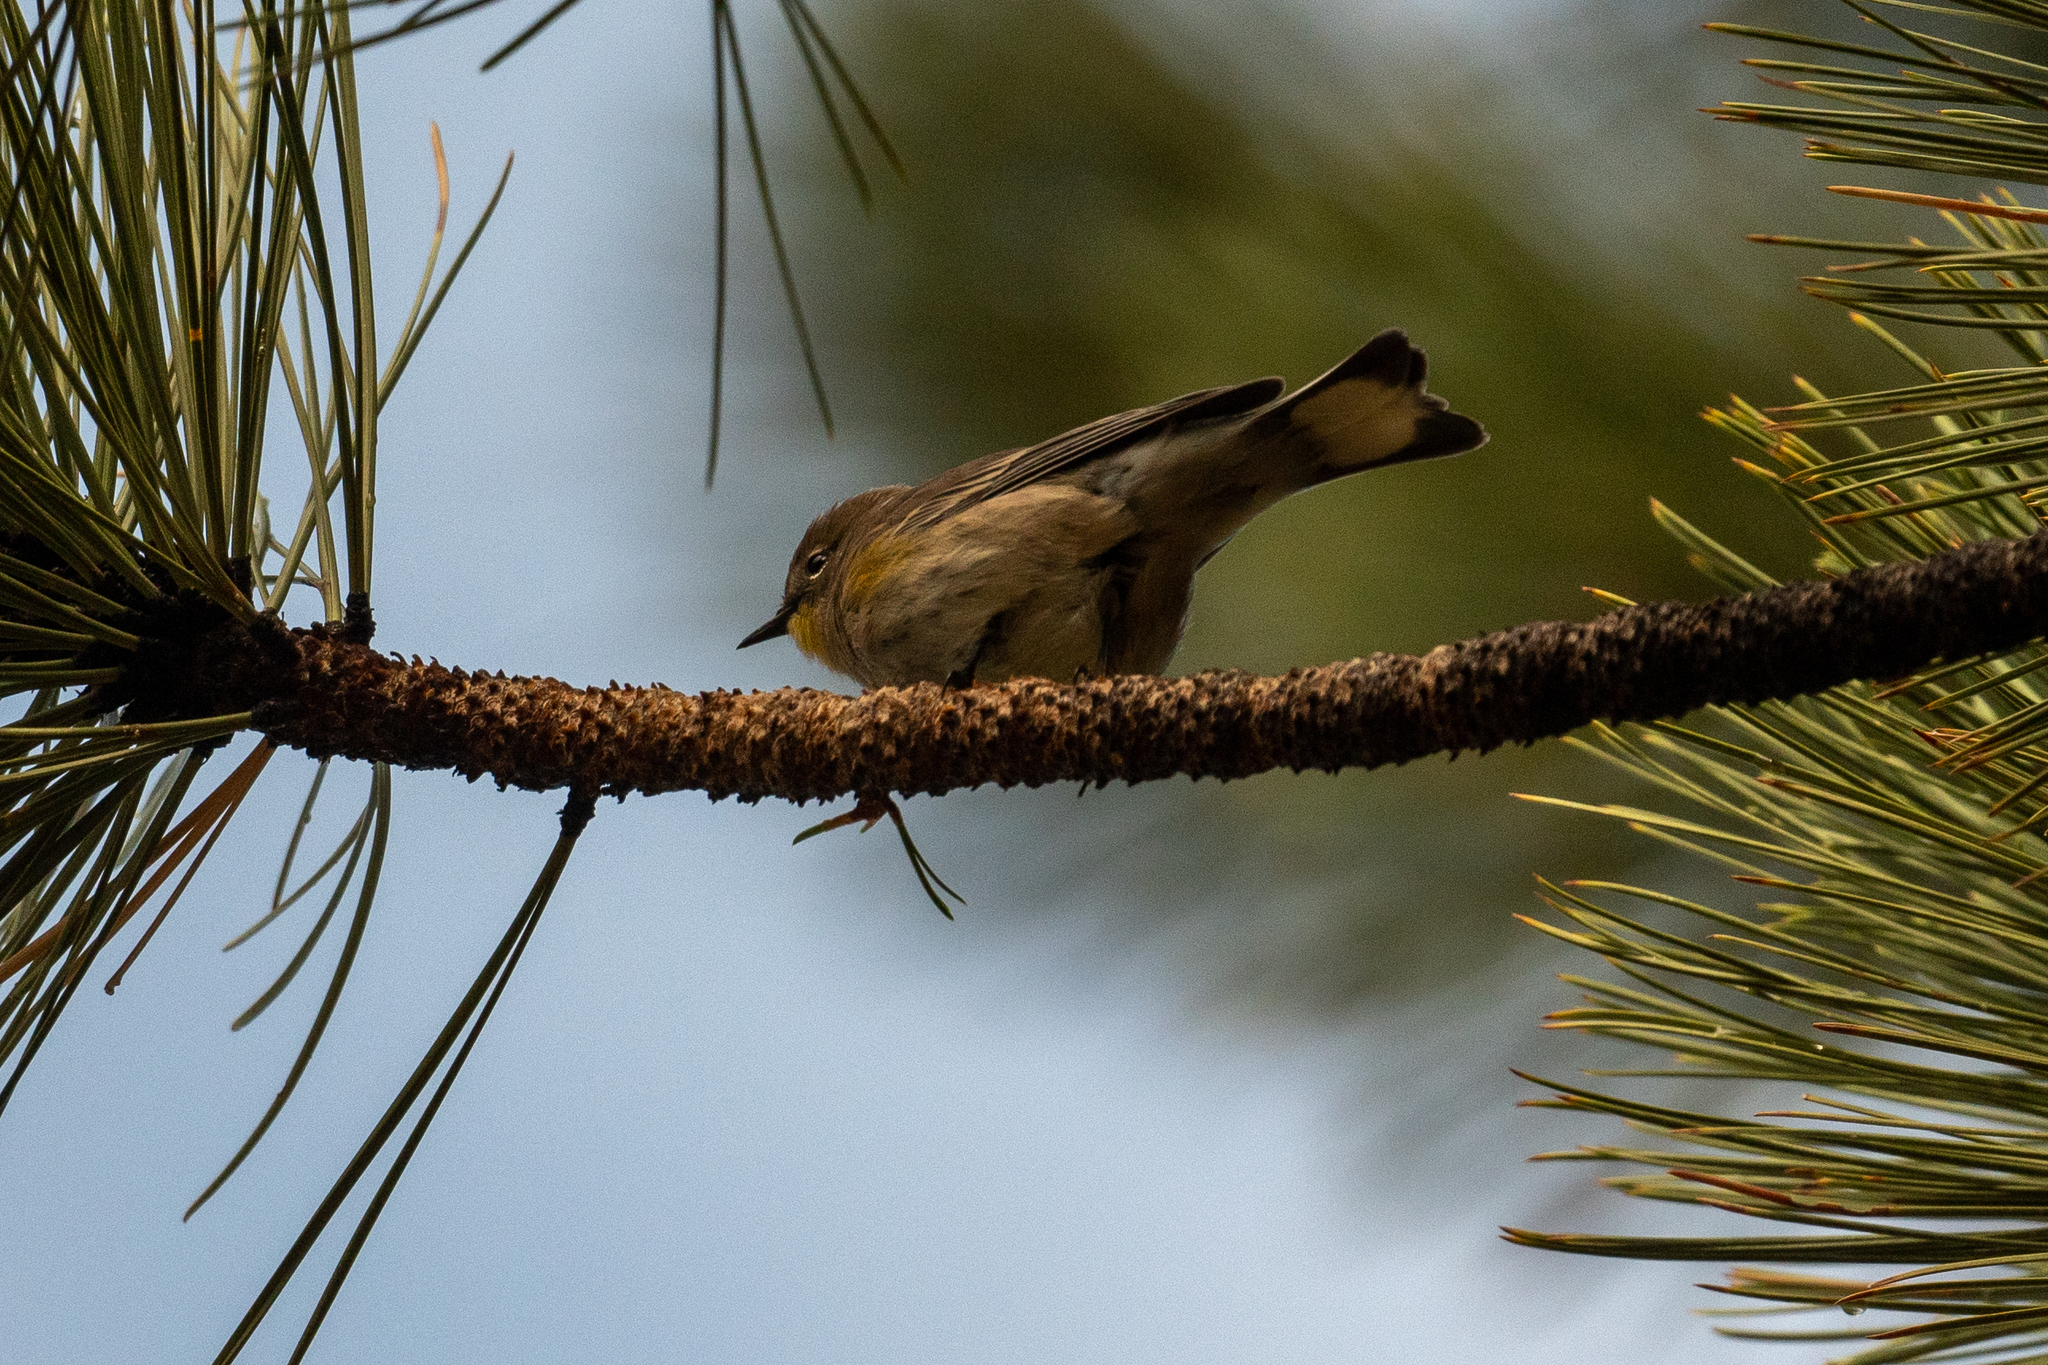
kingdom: Animalia
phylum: Chordata
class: Aves
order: Passeriformes
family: Parulidae
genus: Setophaga
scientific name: Setophaga coronata
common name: Myrtle warbler
